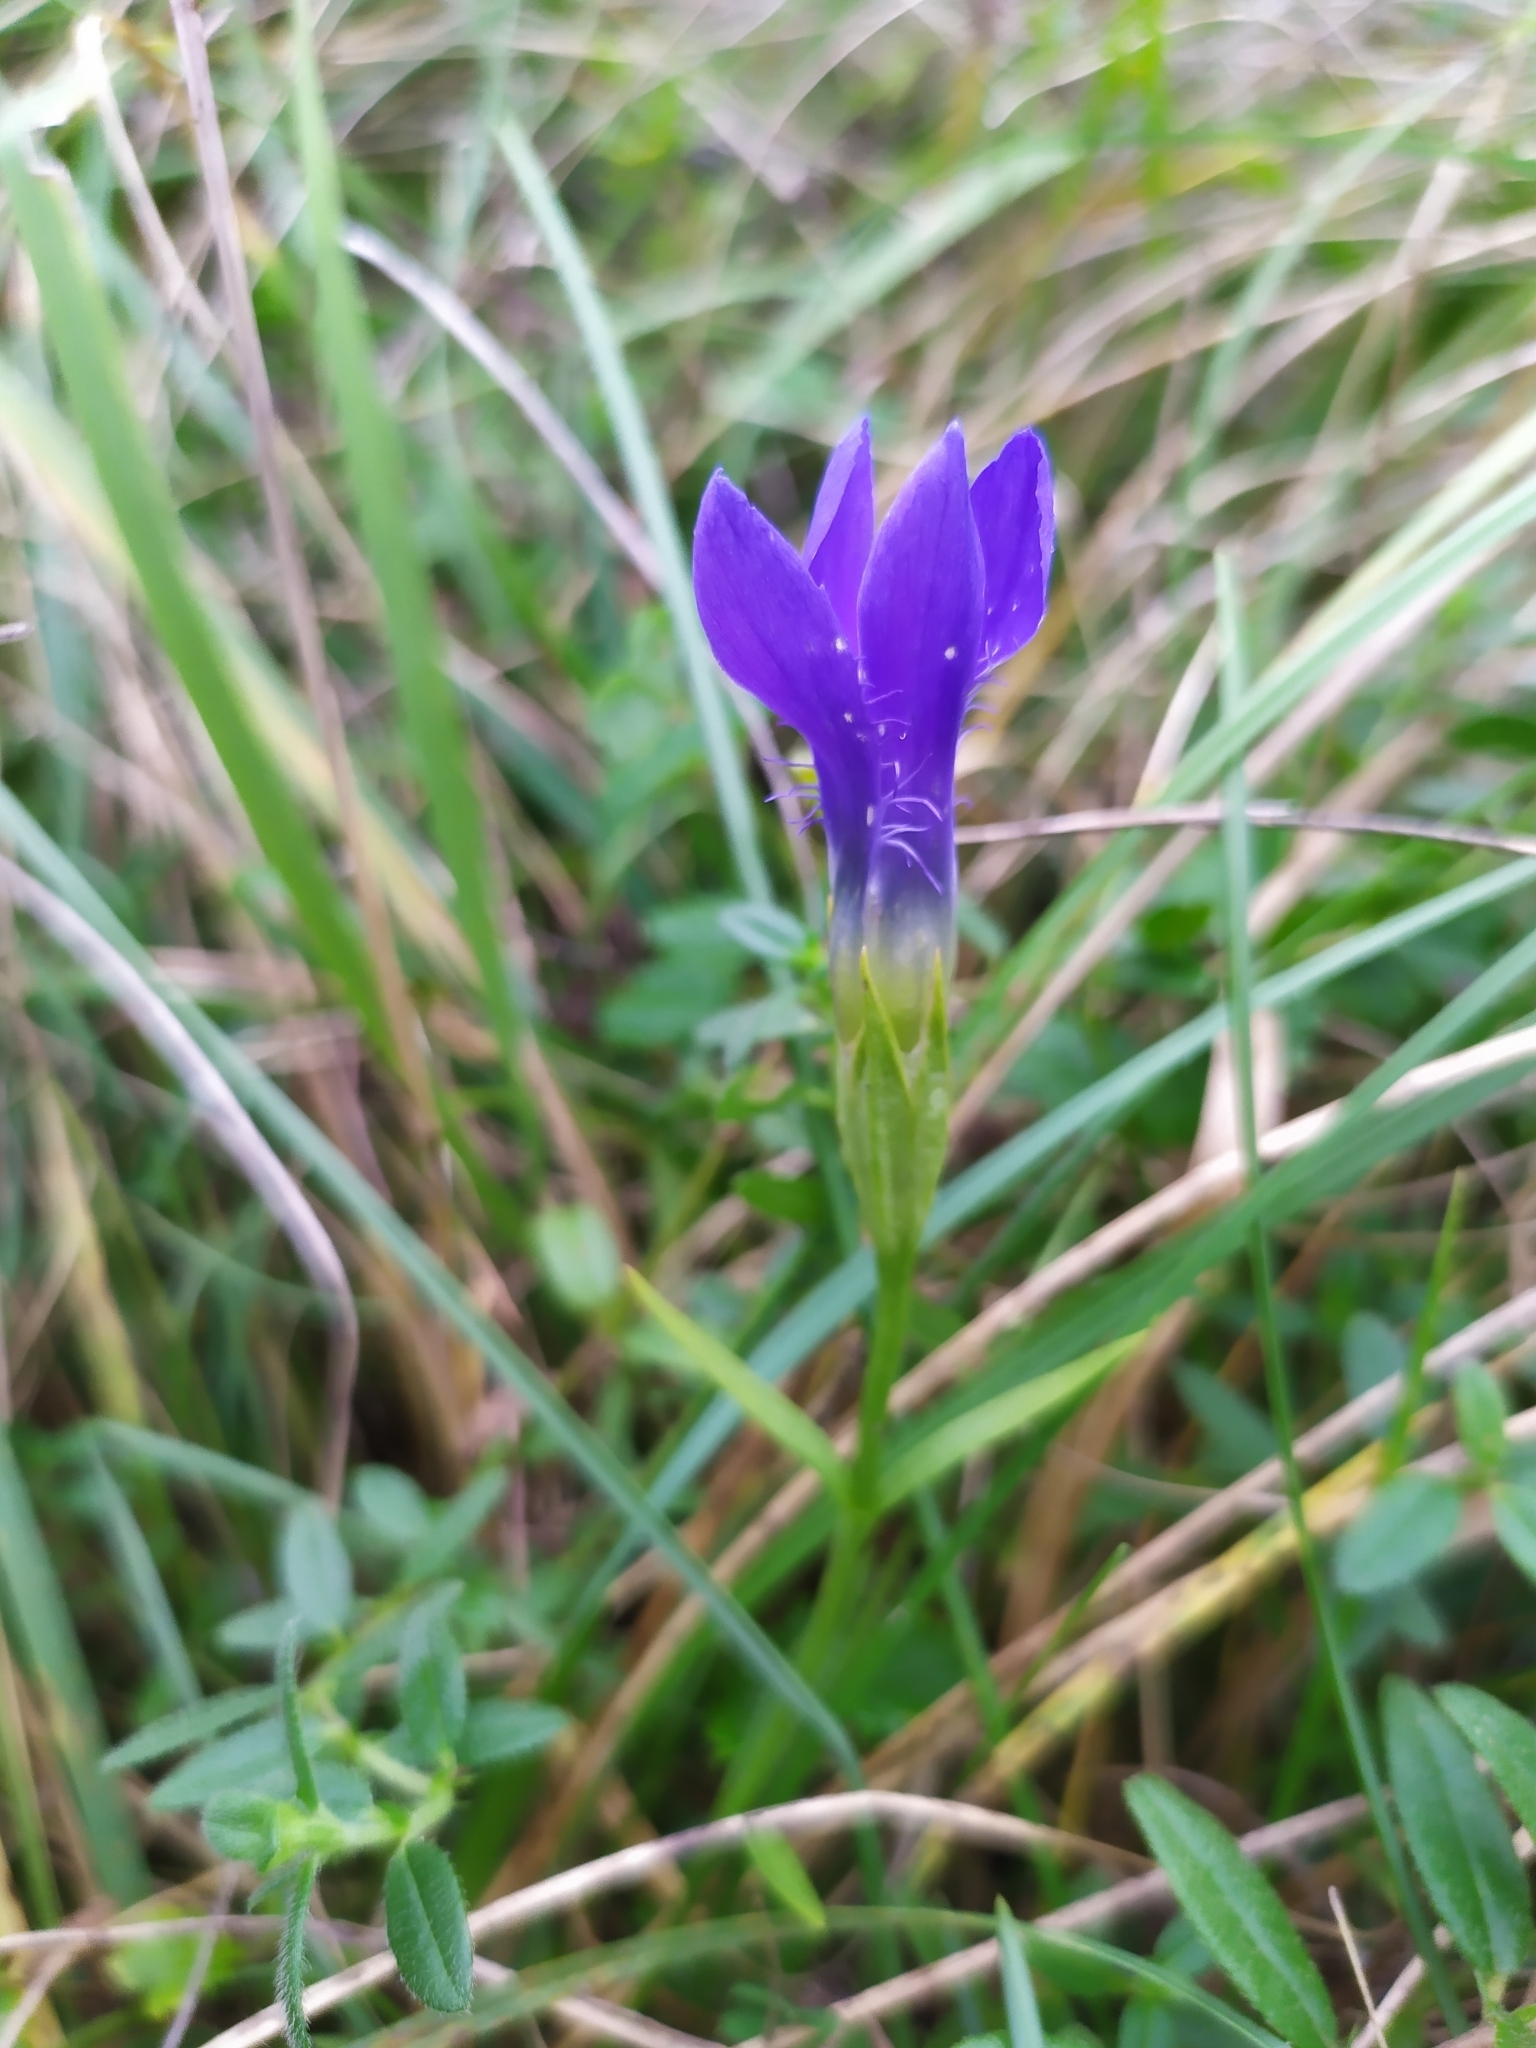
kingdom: Plantae
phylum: Tracheophyta
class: Magnoliopsida
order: Gentianales
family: Gentianaceae
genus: Gentianopsis
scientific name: Gentianopsis ciliata
